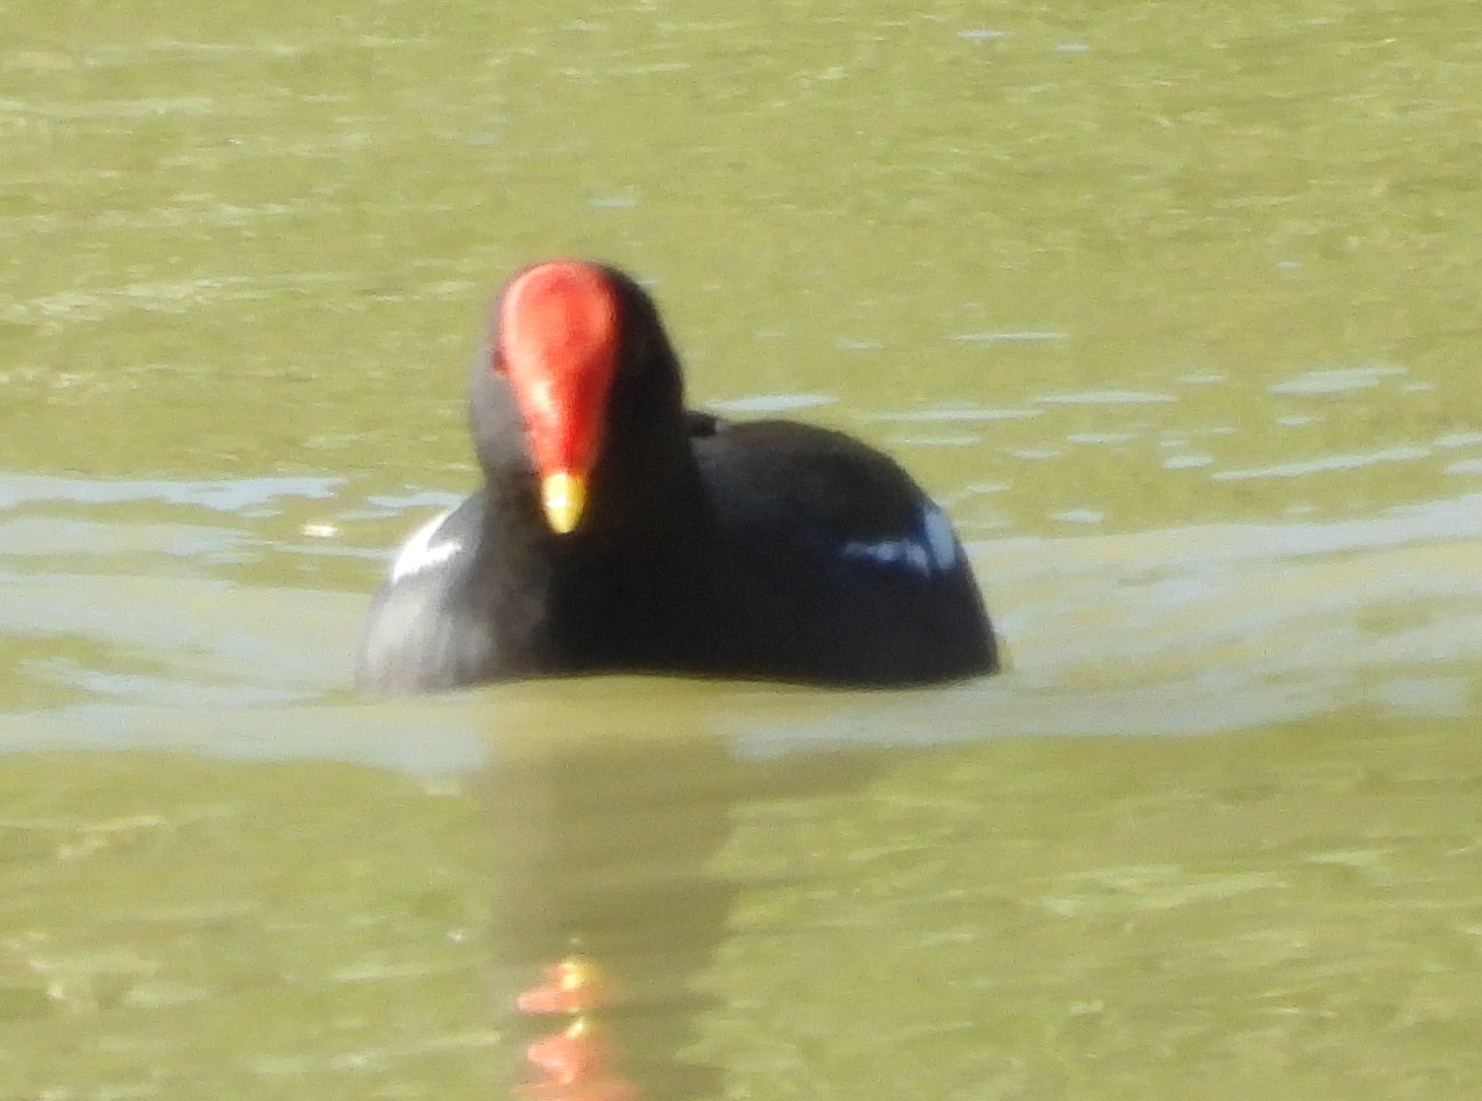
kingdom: Animalia
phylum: Chordata
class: Aves
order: Gruiformes
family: Rallidae
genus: Gallinula
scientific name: Gallinula chloropus
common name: Common moorhen
